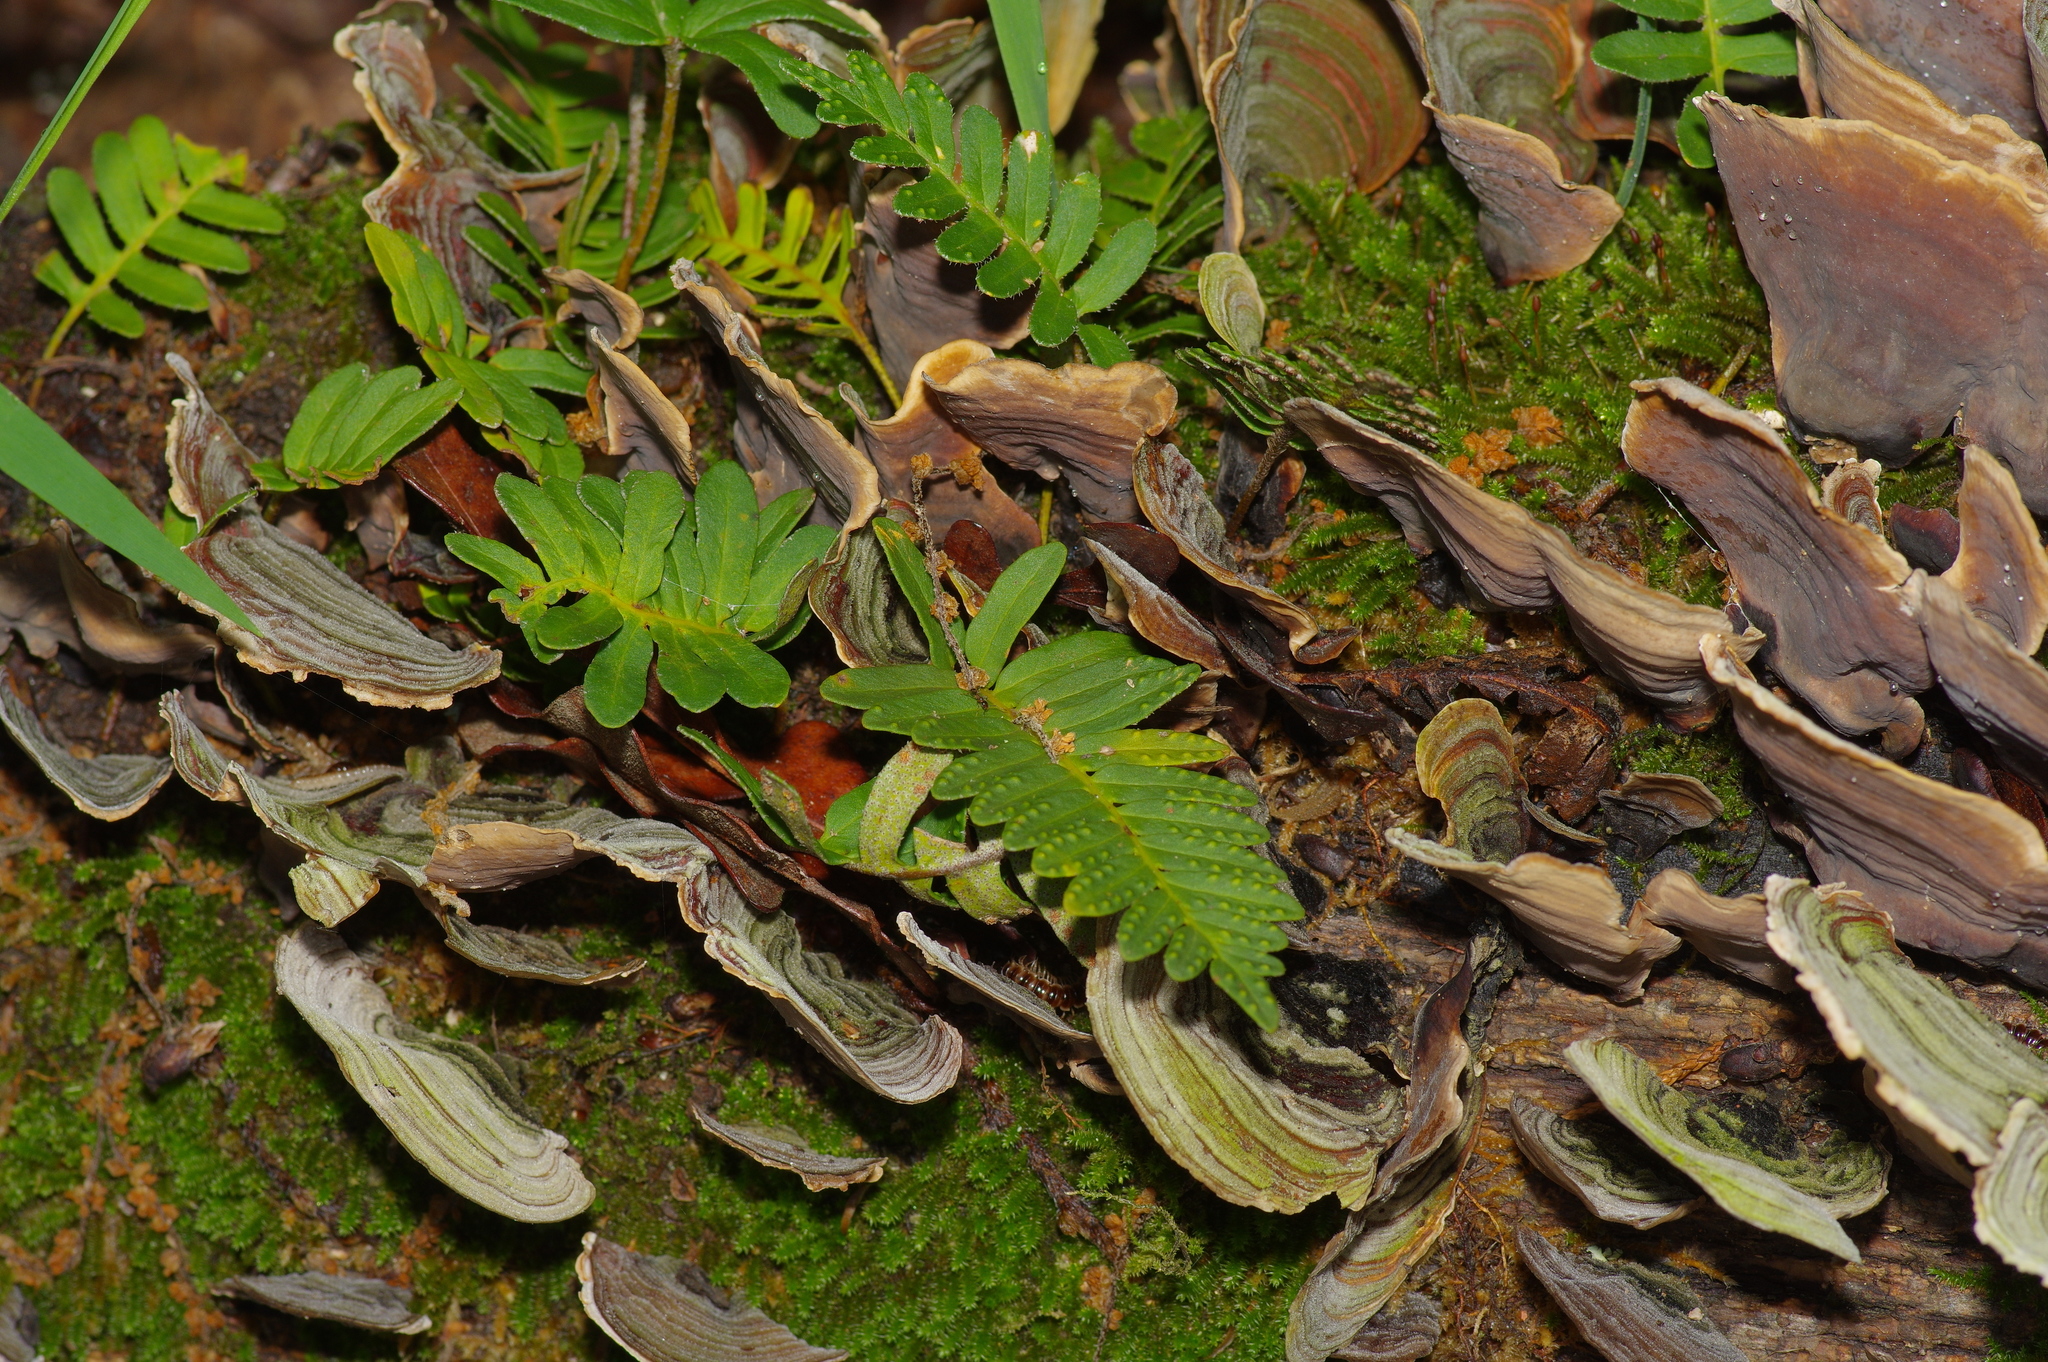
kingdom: Plantae
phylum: Tracheophyta
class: Polypodiopsida
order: Polypodiales
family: Polypodiaceae
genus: Pleopeltis
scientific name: Pleopeltis michauxiana
